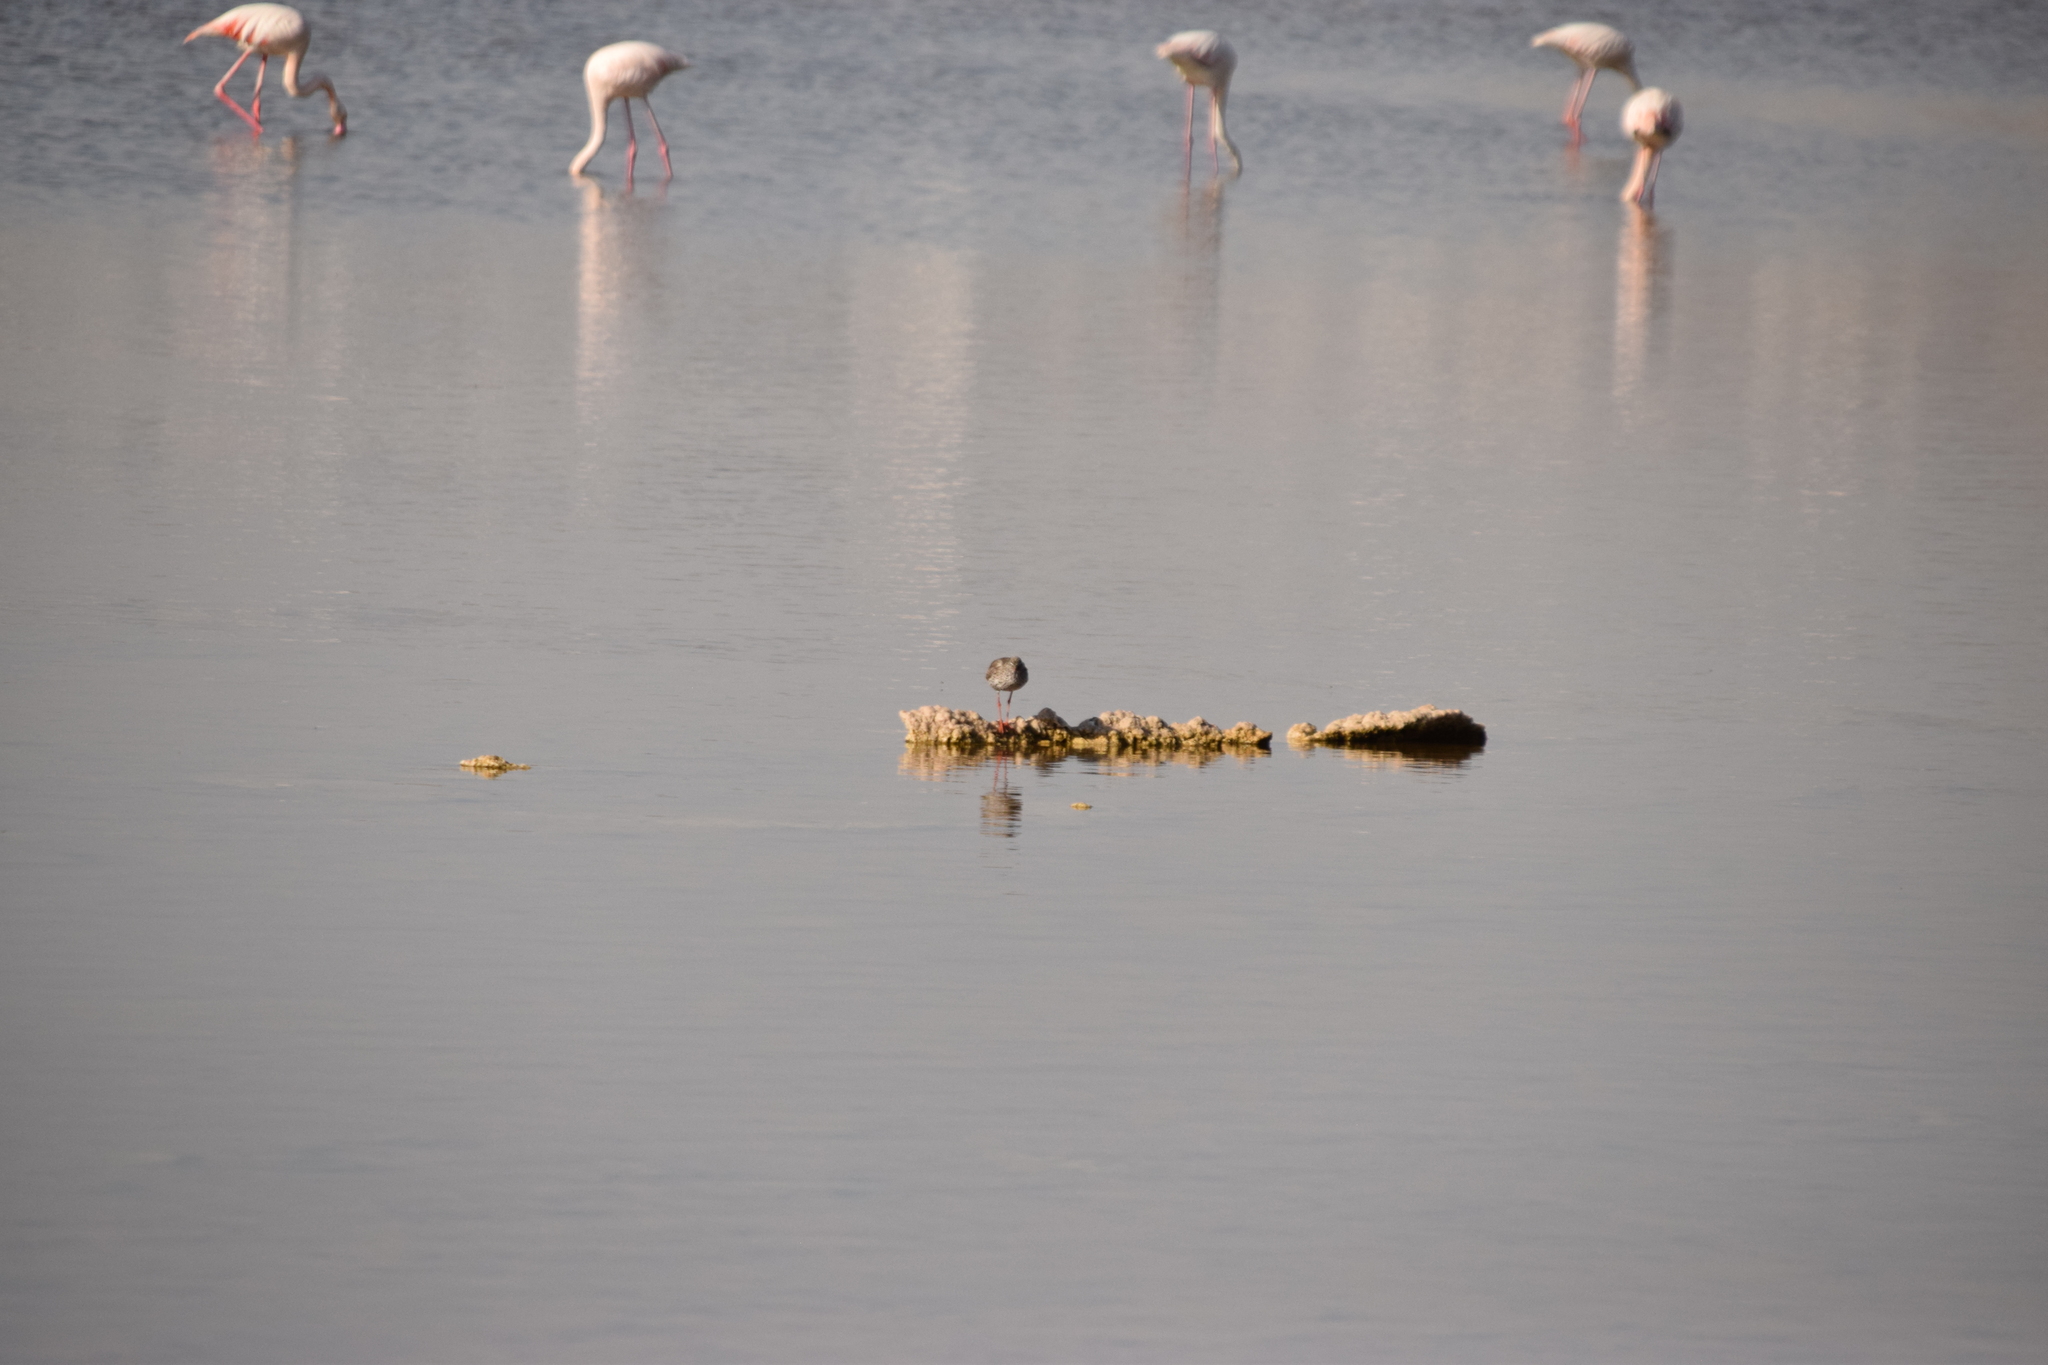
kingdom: Animalia
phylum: Chordata
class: Aves
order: Charadriiformes
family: Scolopacidae
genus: Tringa
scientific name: Tringa totanus
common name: Common redshank
